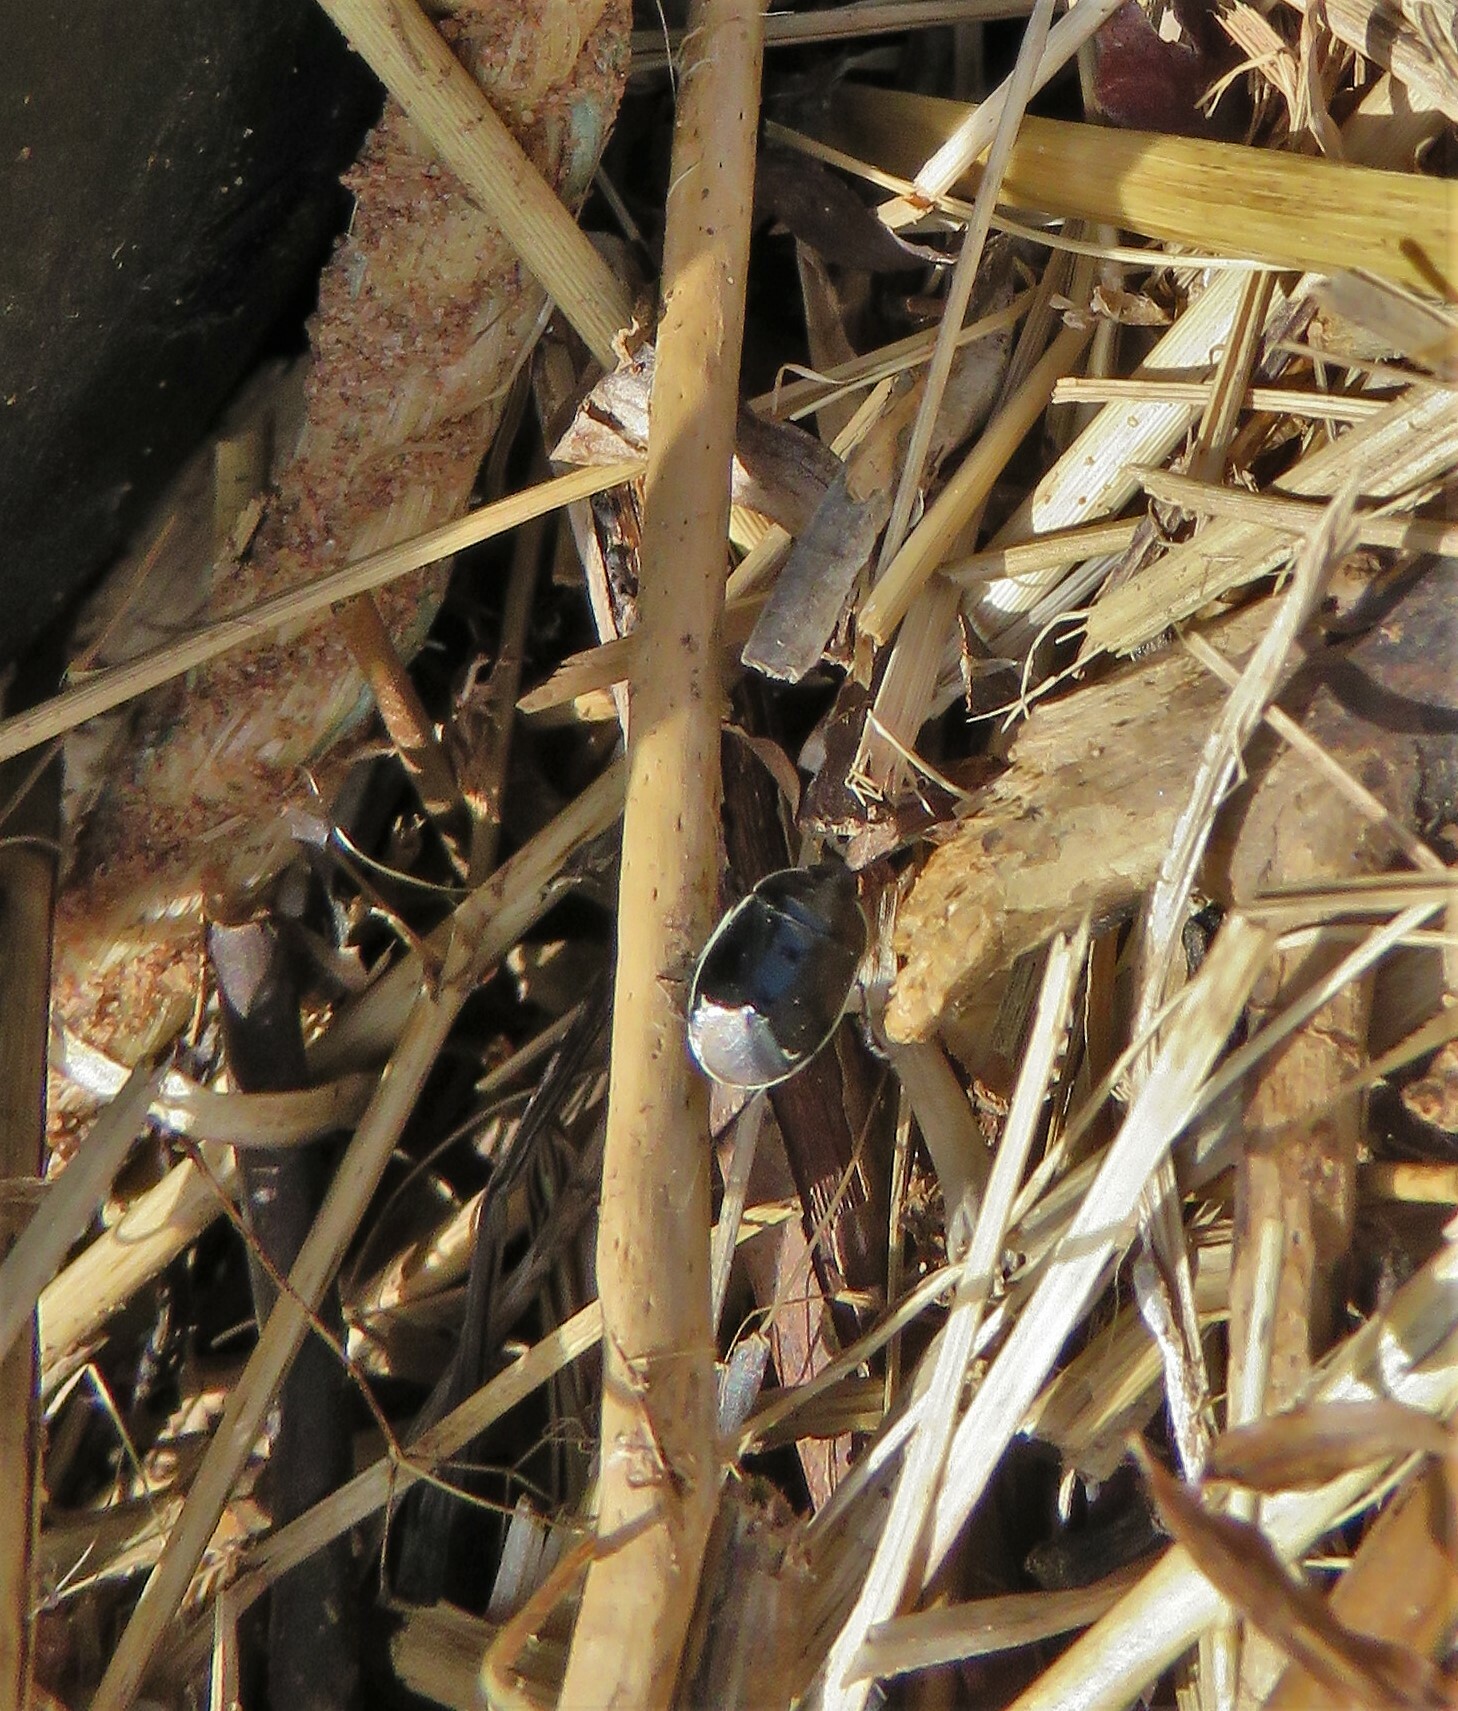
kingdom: Animalia
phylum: Arthropoda
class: Insecta
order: Hemiptera
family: Cydnidae
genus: Sehirus
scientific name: Sehirus cinctus
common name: White-margined burrower bug
